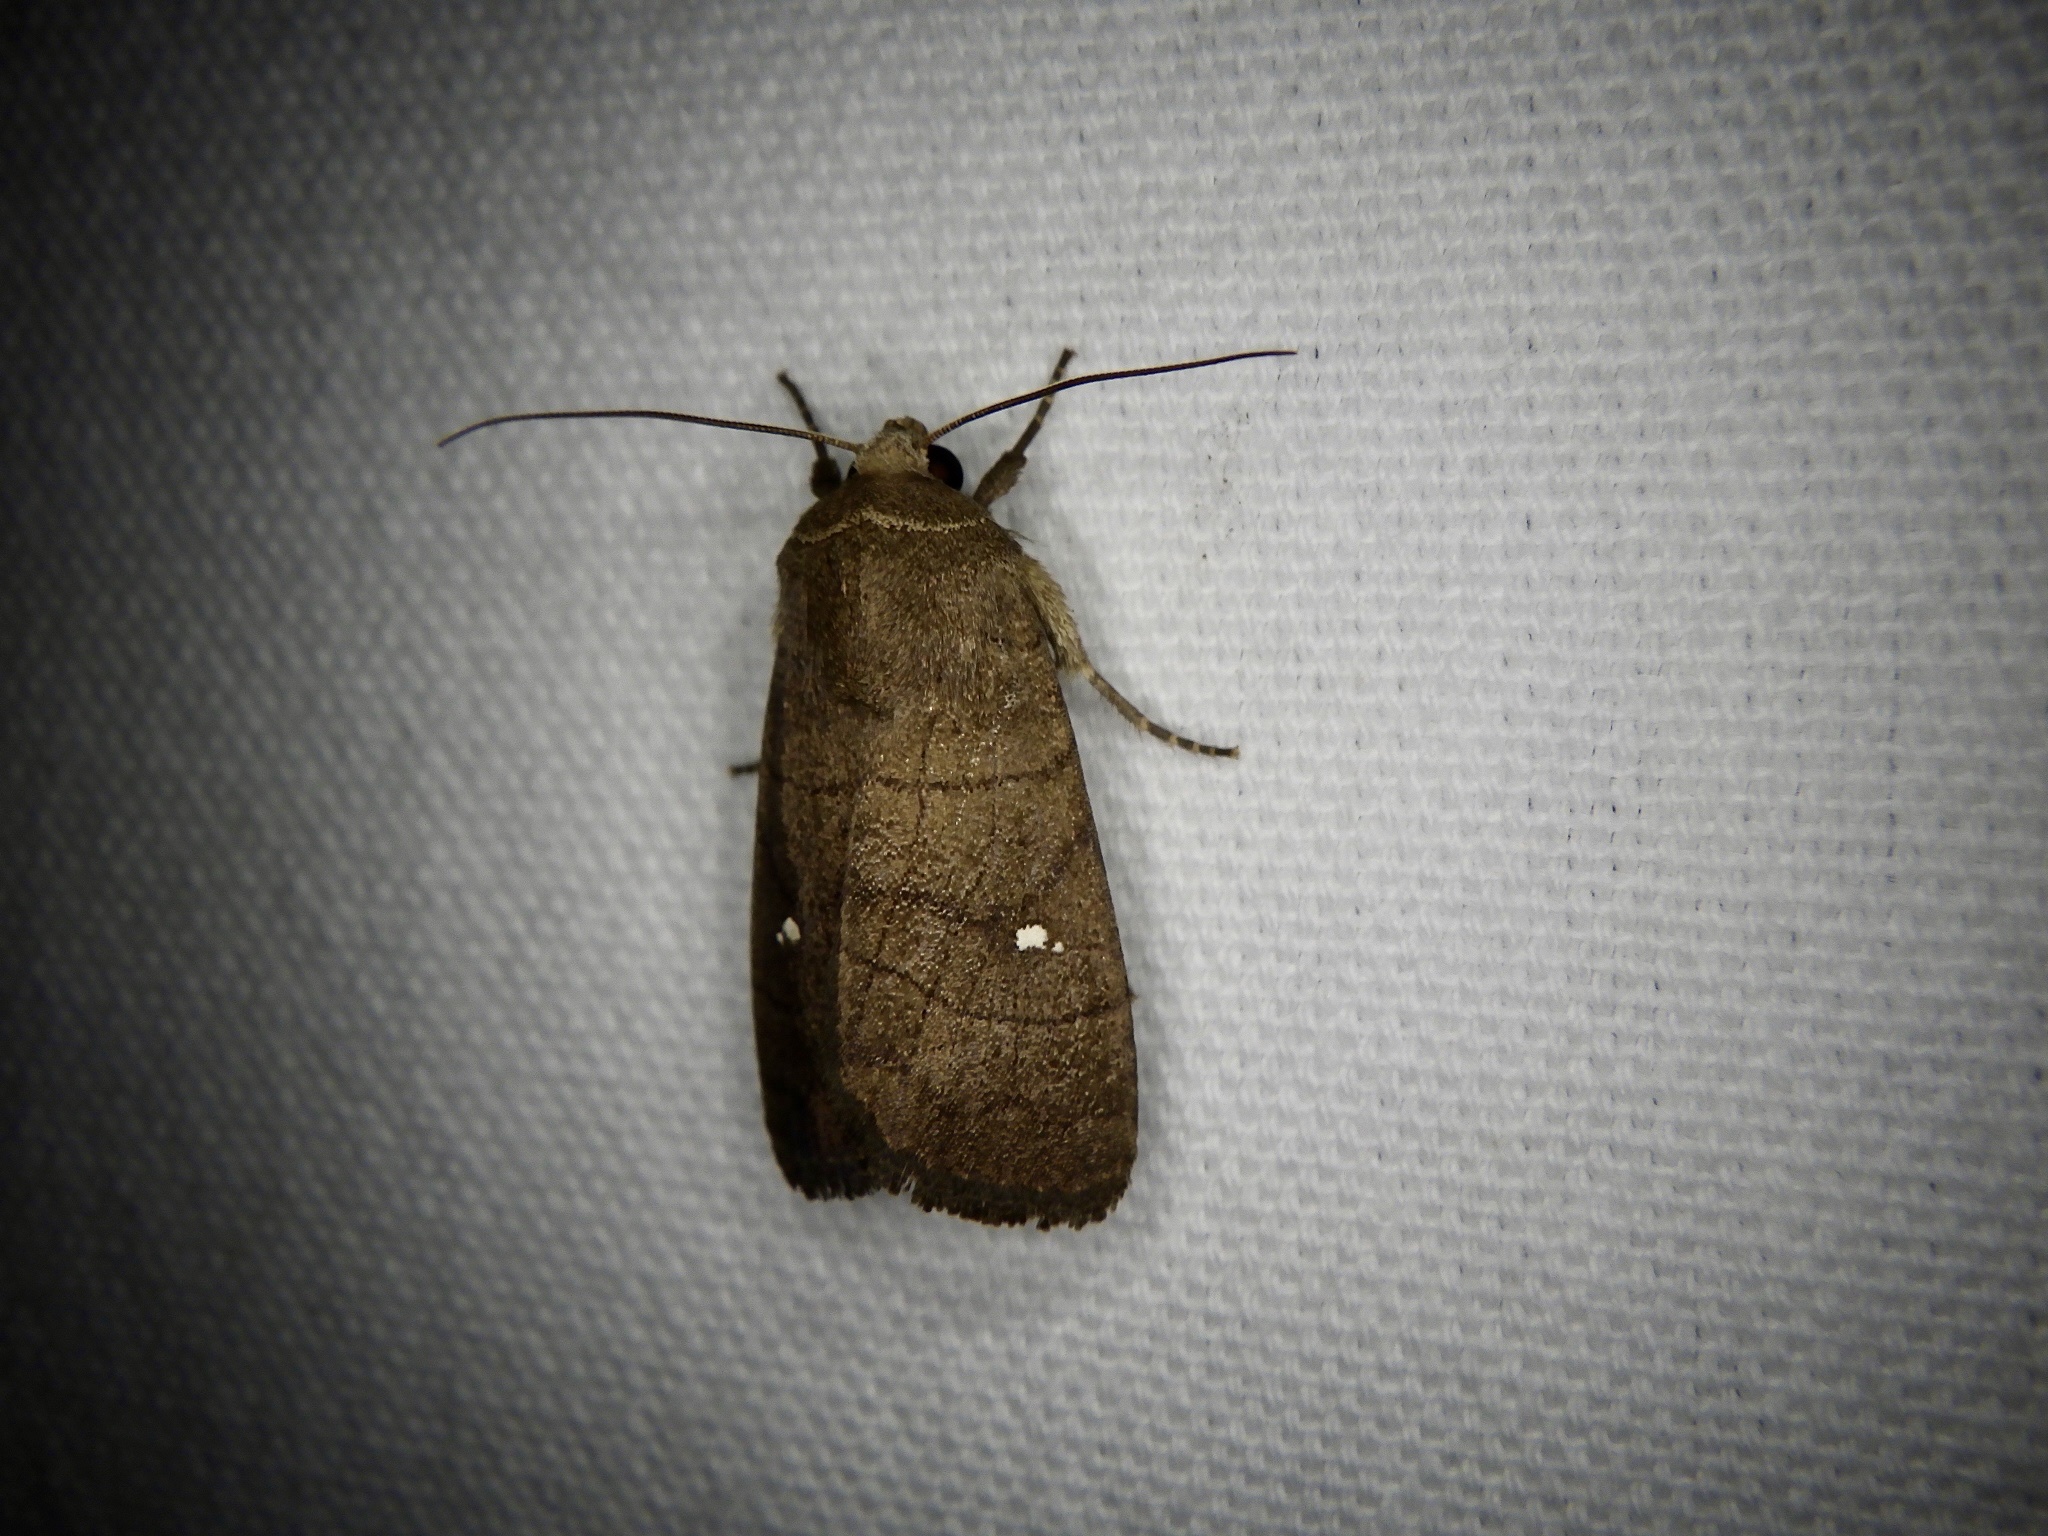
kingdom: Animalia
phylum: Arthropoda
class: Insecta
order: Lepidoptera
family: Noctuidae
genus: Proxenus
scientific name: Proxenus
